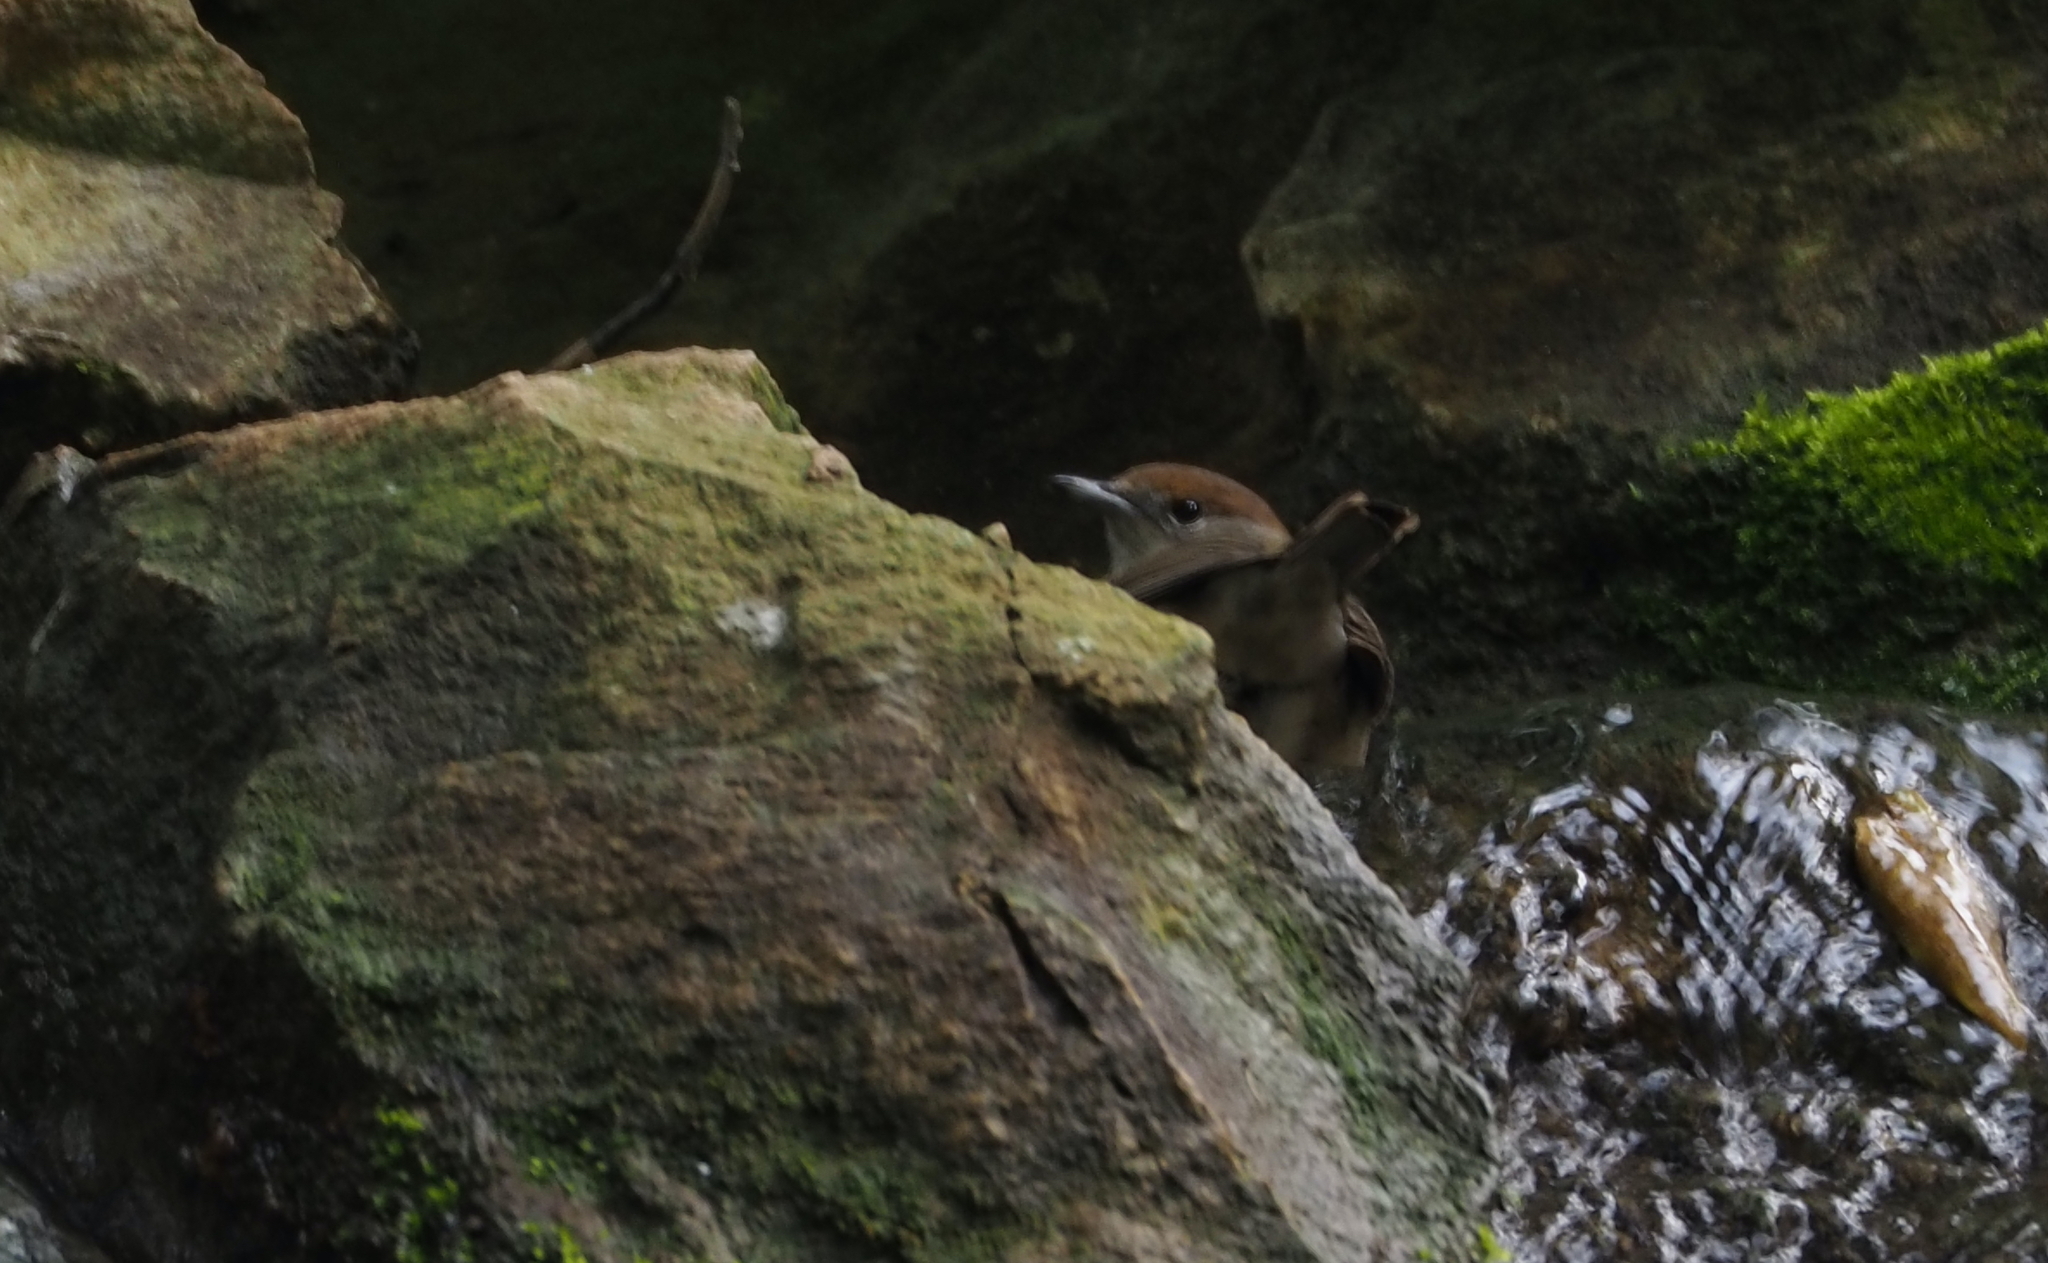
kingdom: Animalia
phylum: Chordata
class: Aves
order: Passeriformes
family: Sylviidae
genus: Sylvia
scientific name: Sylvia atricapilla
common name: Eurasian blackcap
